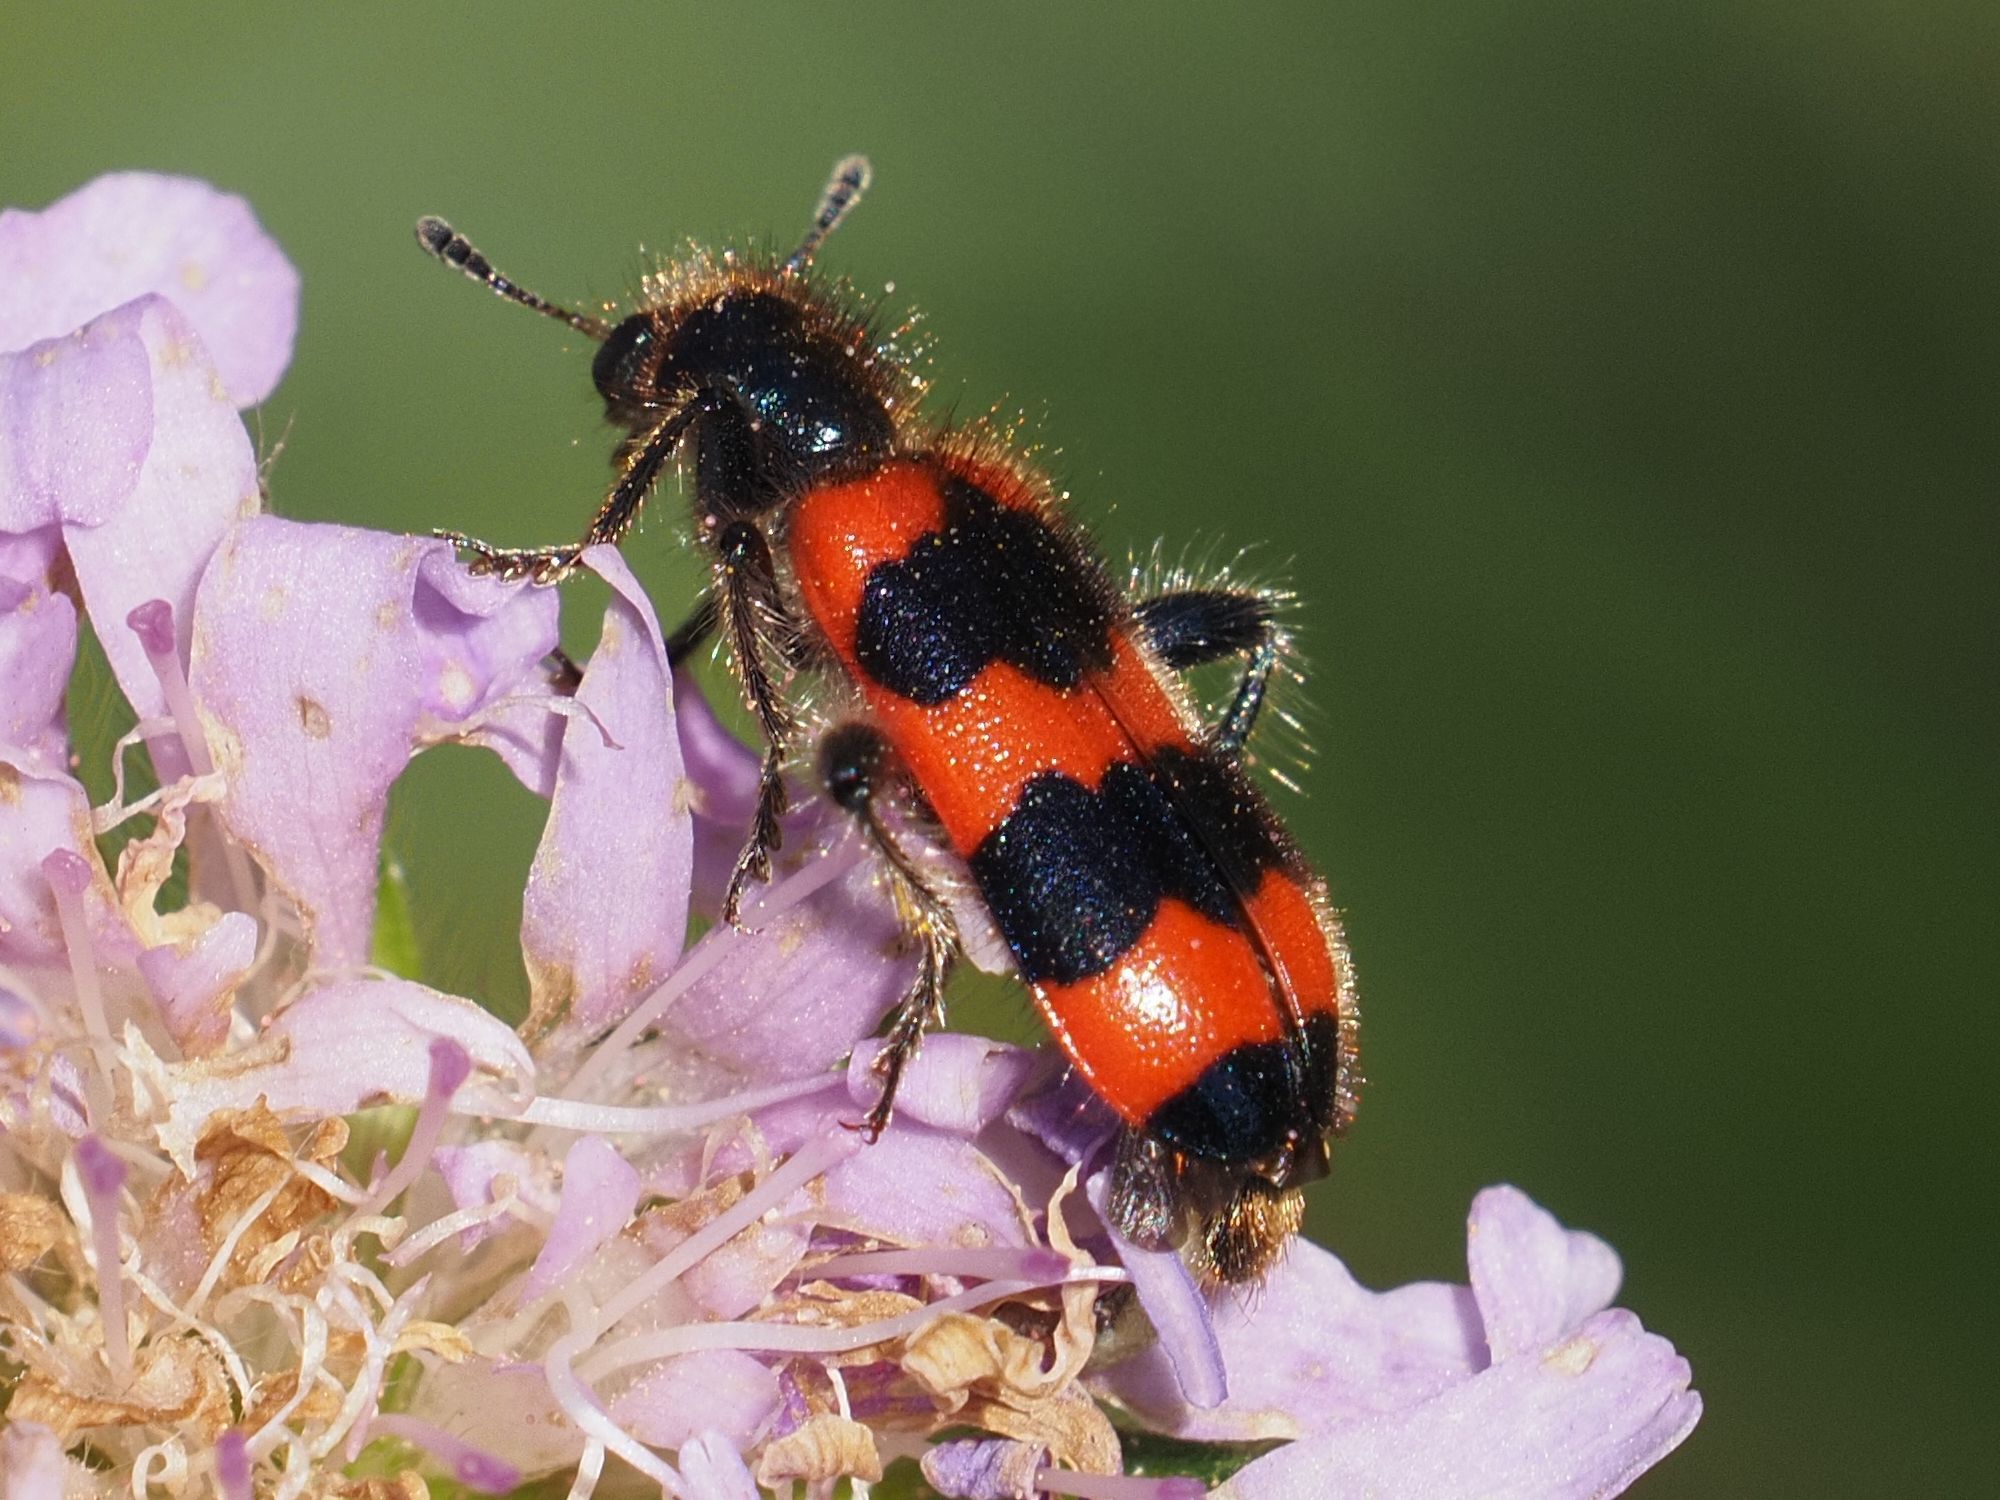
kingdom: Animalia
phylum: Arthropoda
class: Insecta
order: Coleoptera
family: Cleridae
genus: Trichodes
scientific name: Trichodes apiarius
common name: Bee-eating beetle
